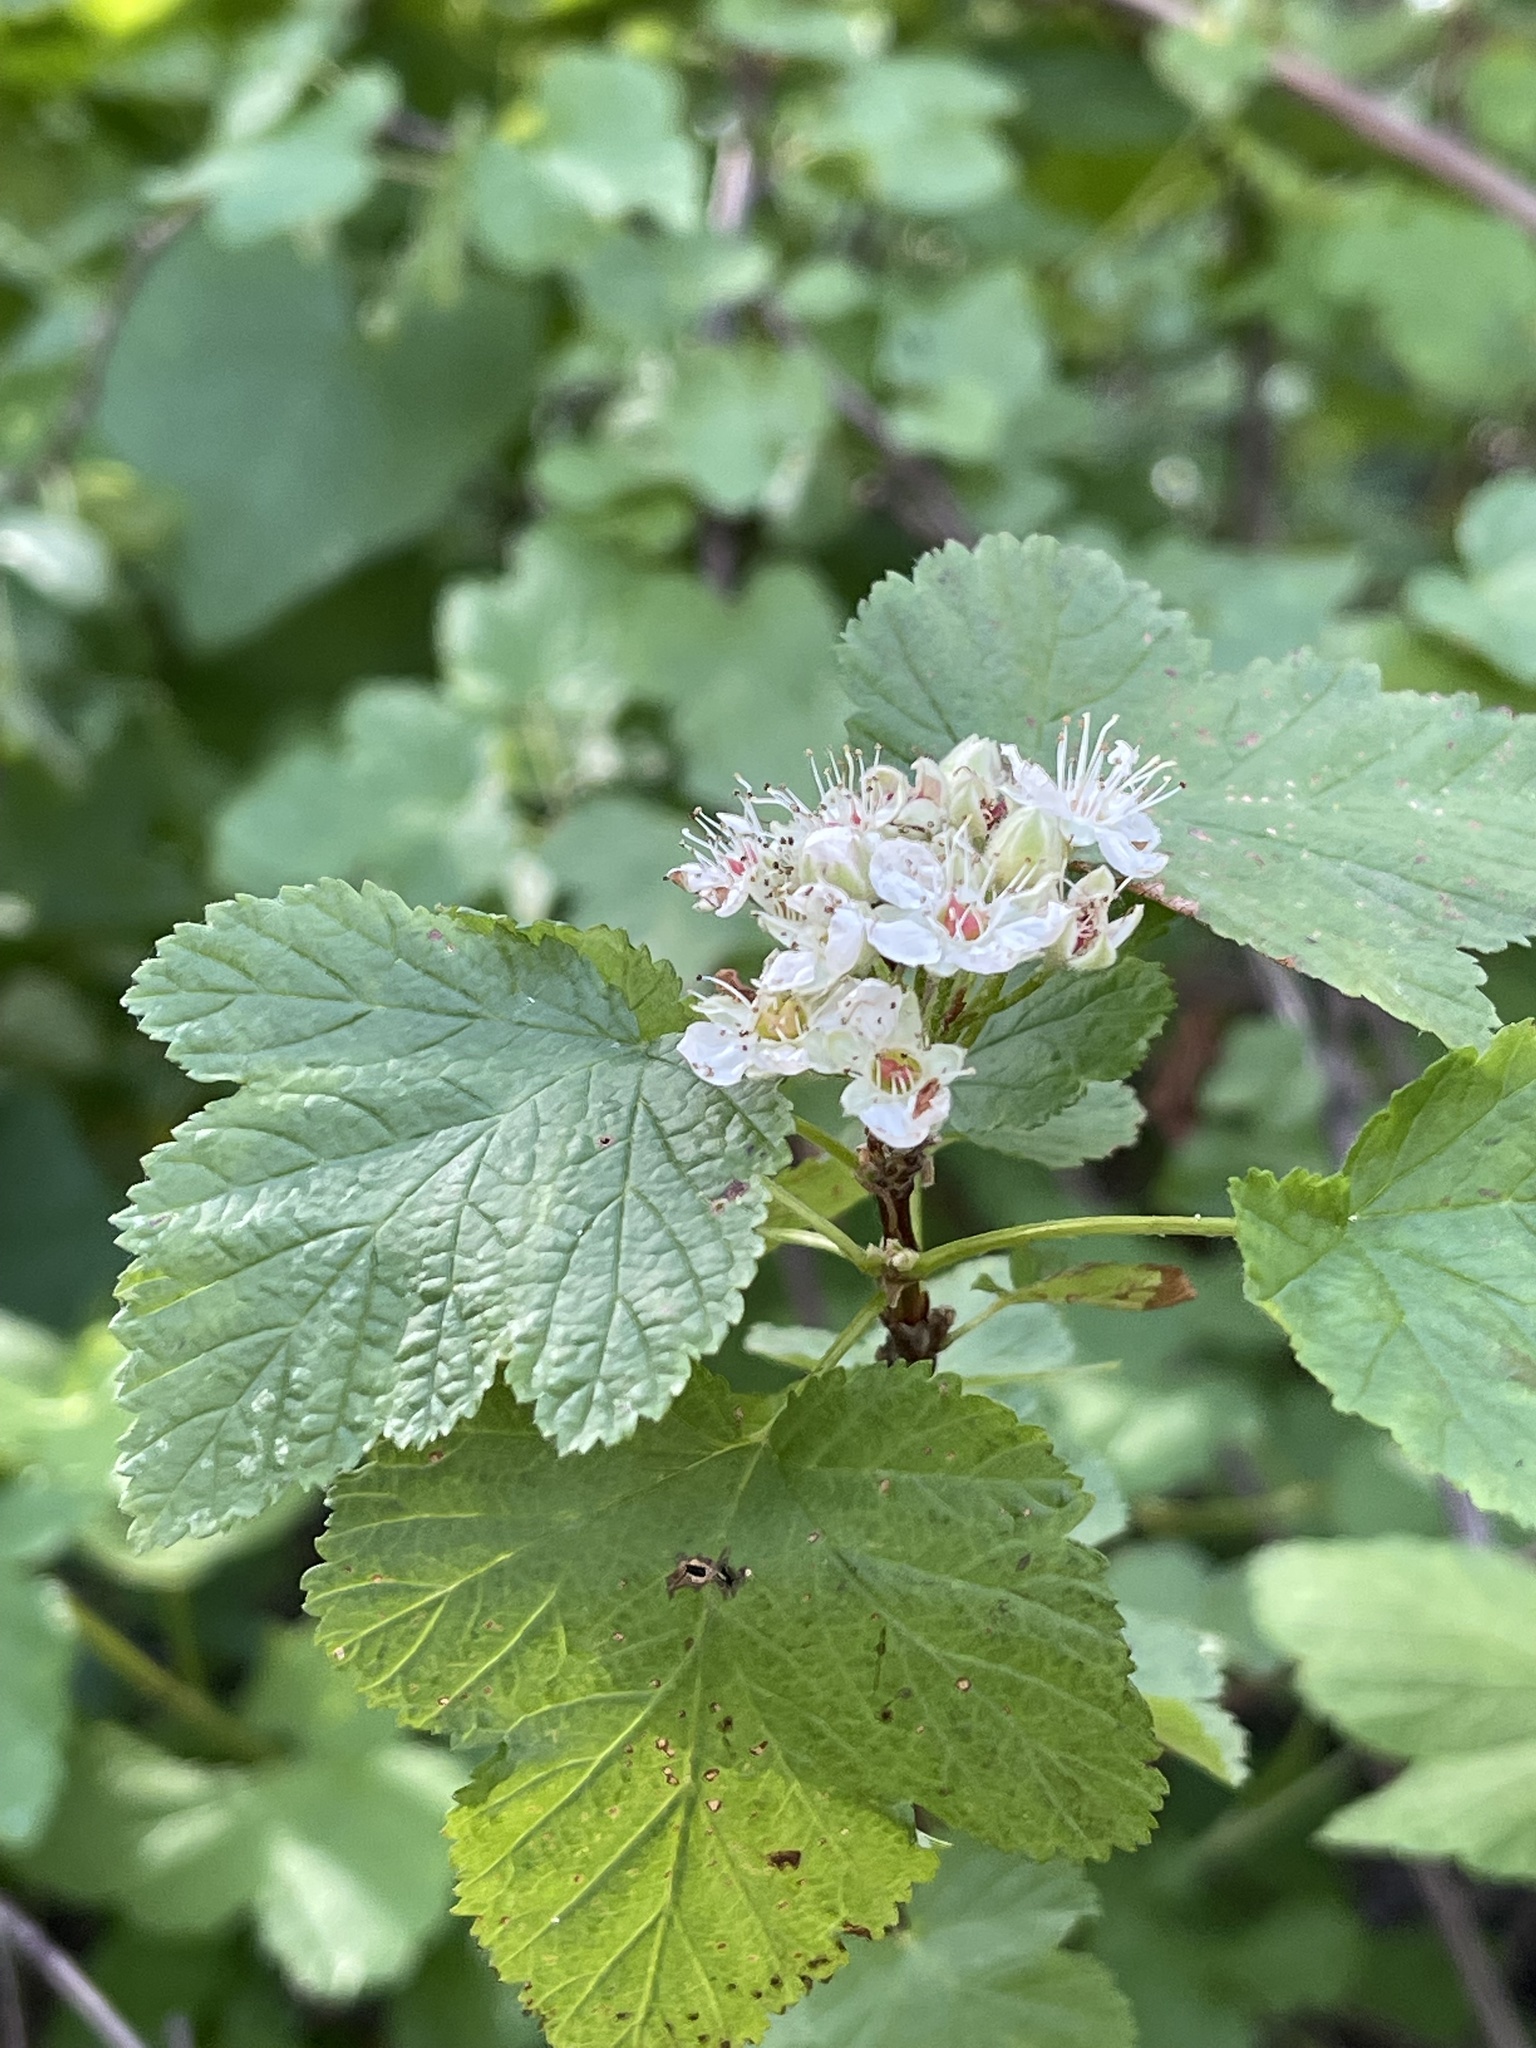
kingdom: Plantae
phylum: Tracheophyta
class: Magnoliopsida
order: Rosales
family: Rosaceae
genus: Physocarpus
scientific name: Physocarpus capitatus
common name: Pacific ninebark
